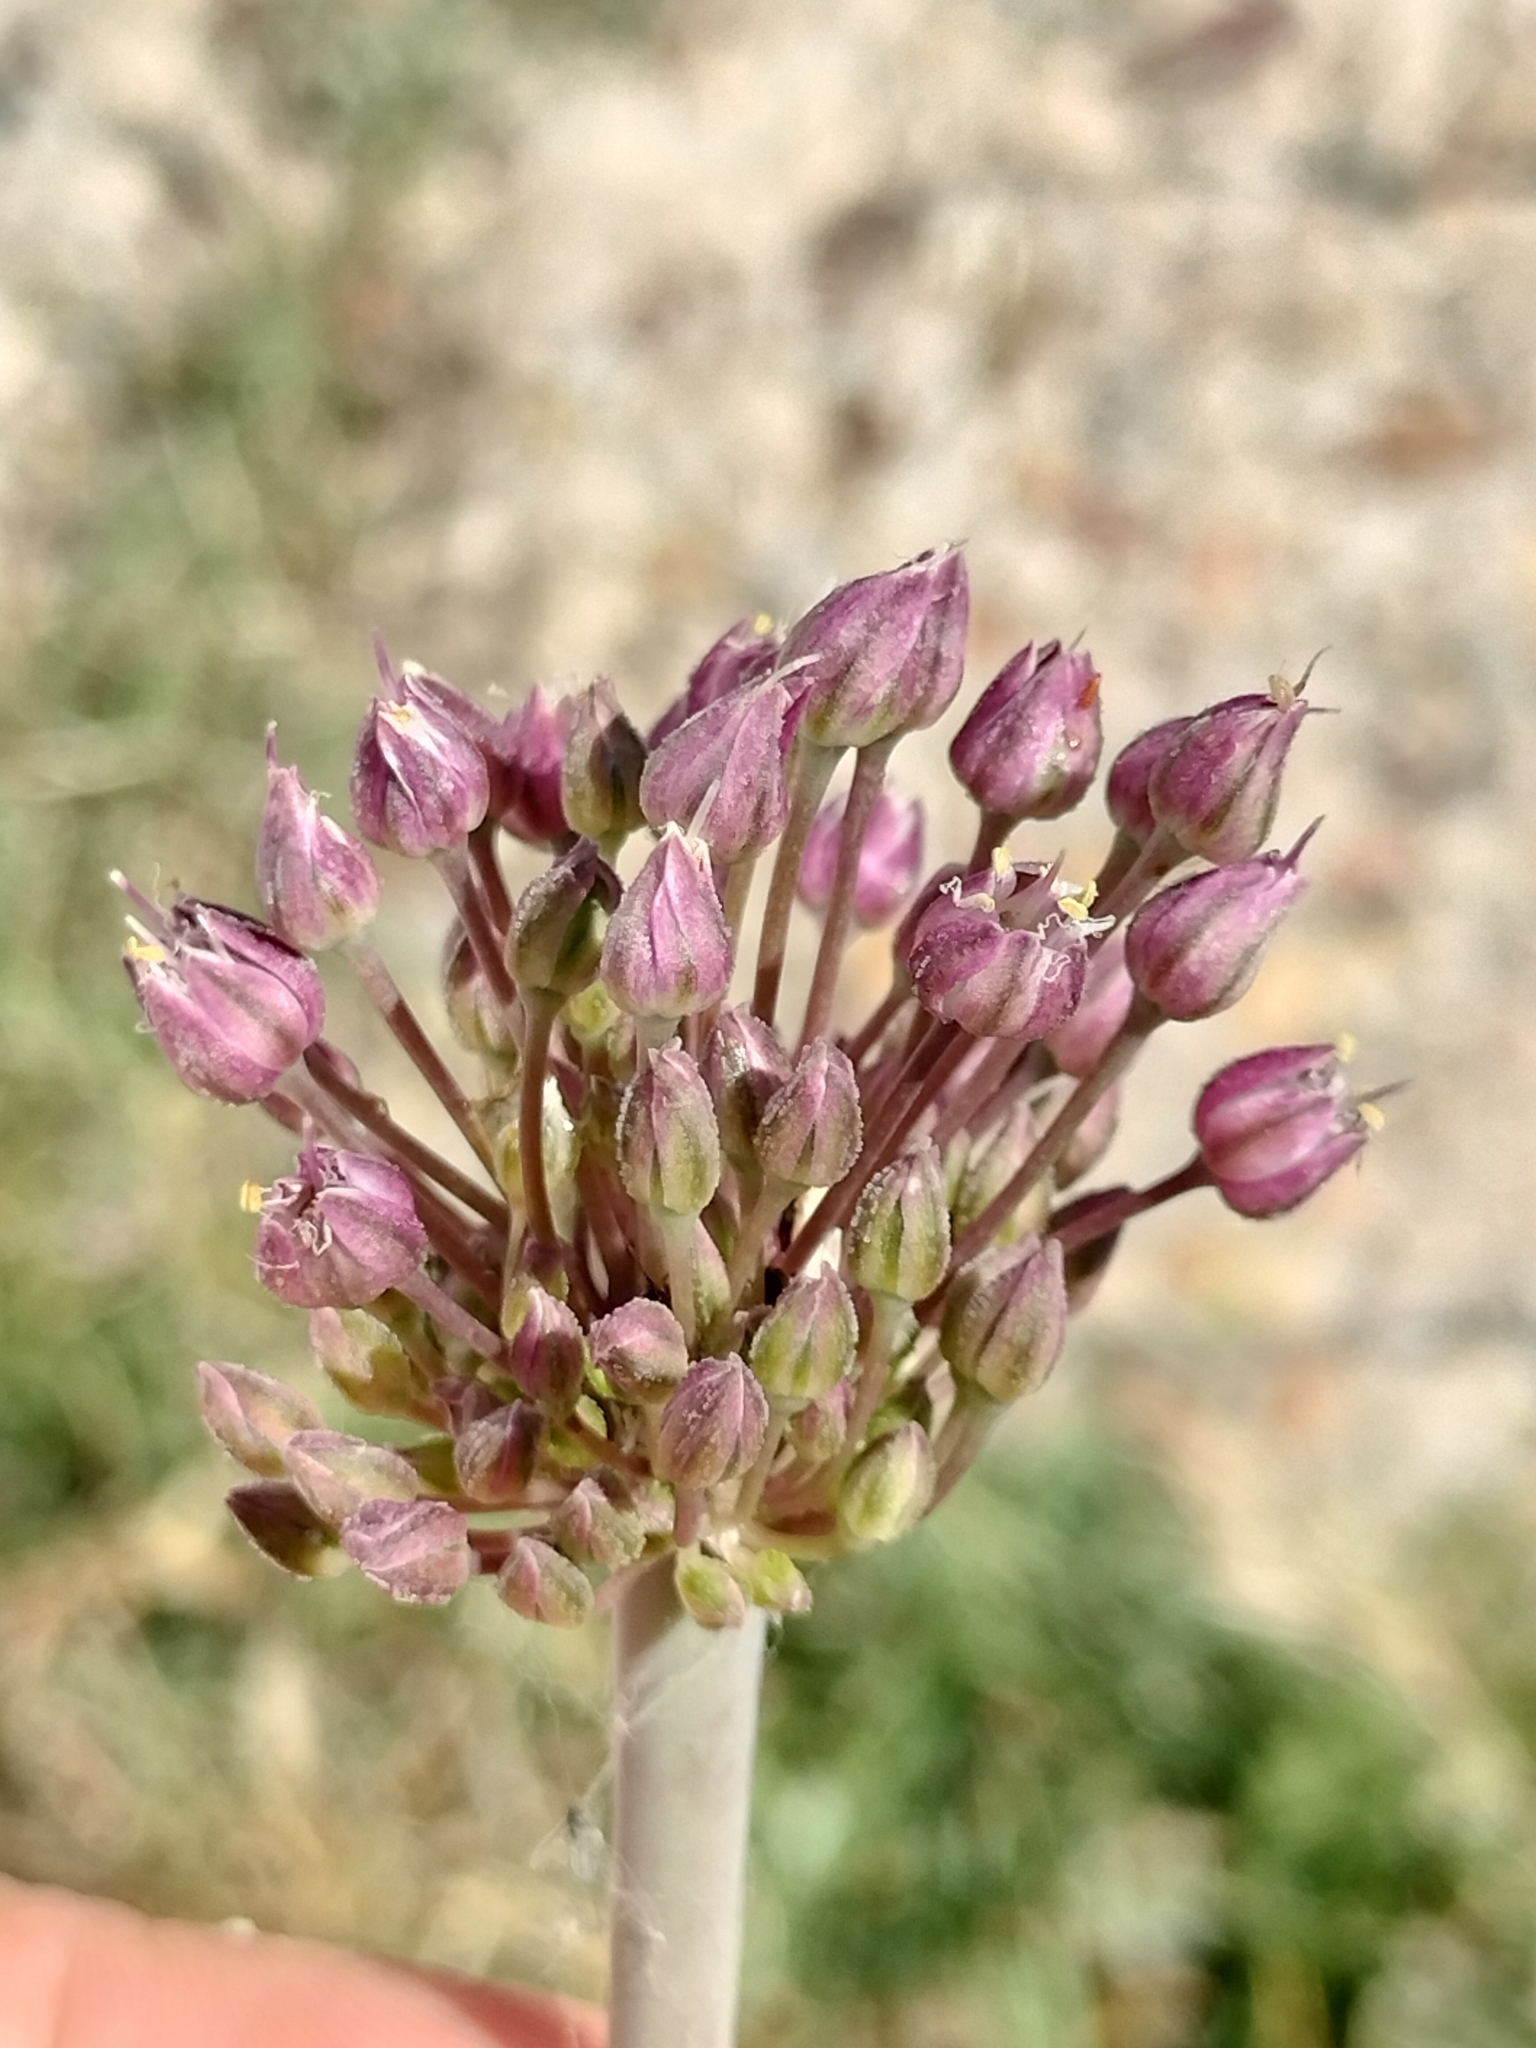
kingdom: Plantae
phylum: Tracheophyta
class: Liliopsida
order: Asparagales
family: Amaryllidaceae
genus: Allium
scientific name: Allium ampeloprasum
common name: Wild leek
